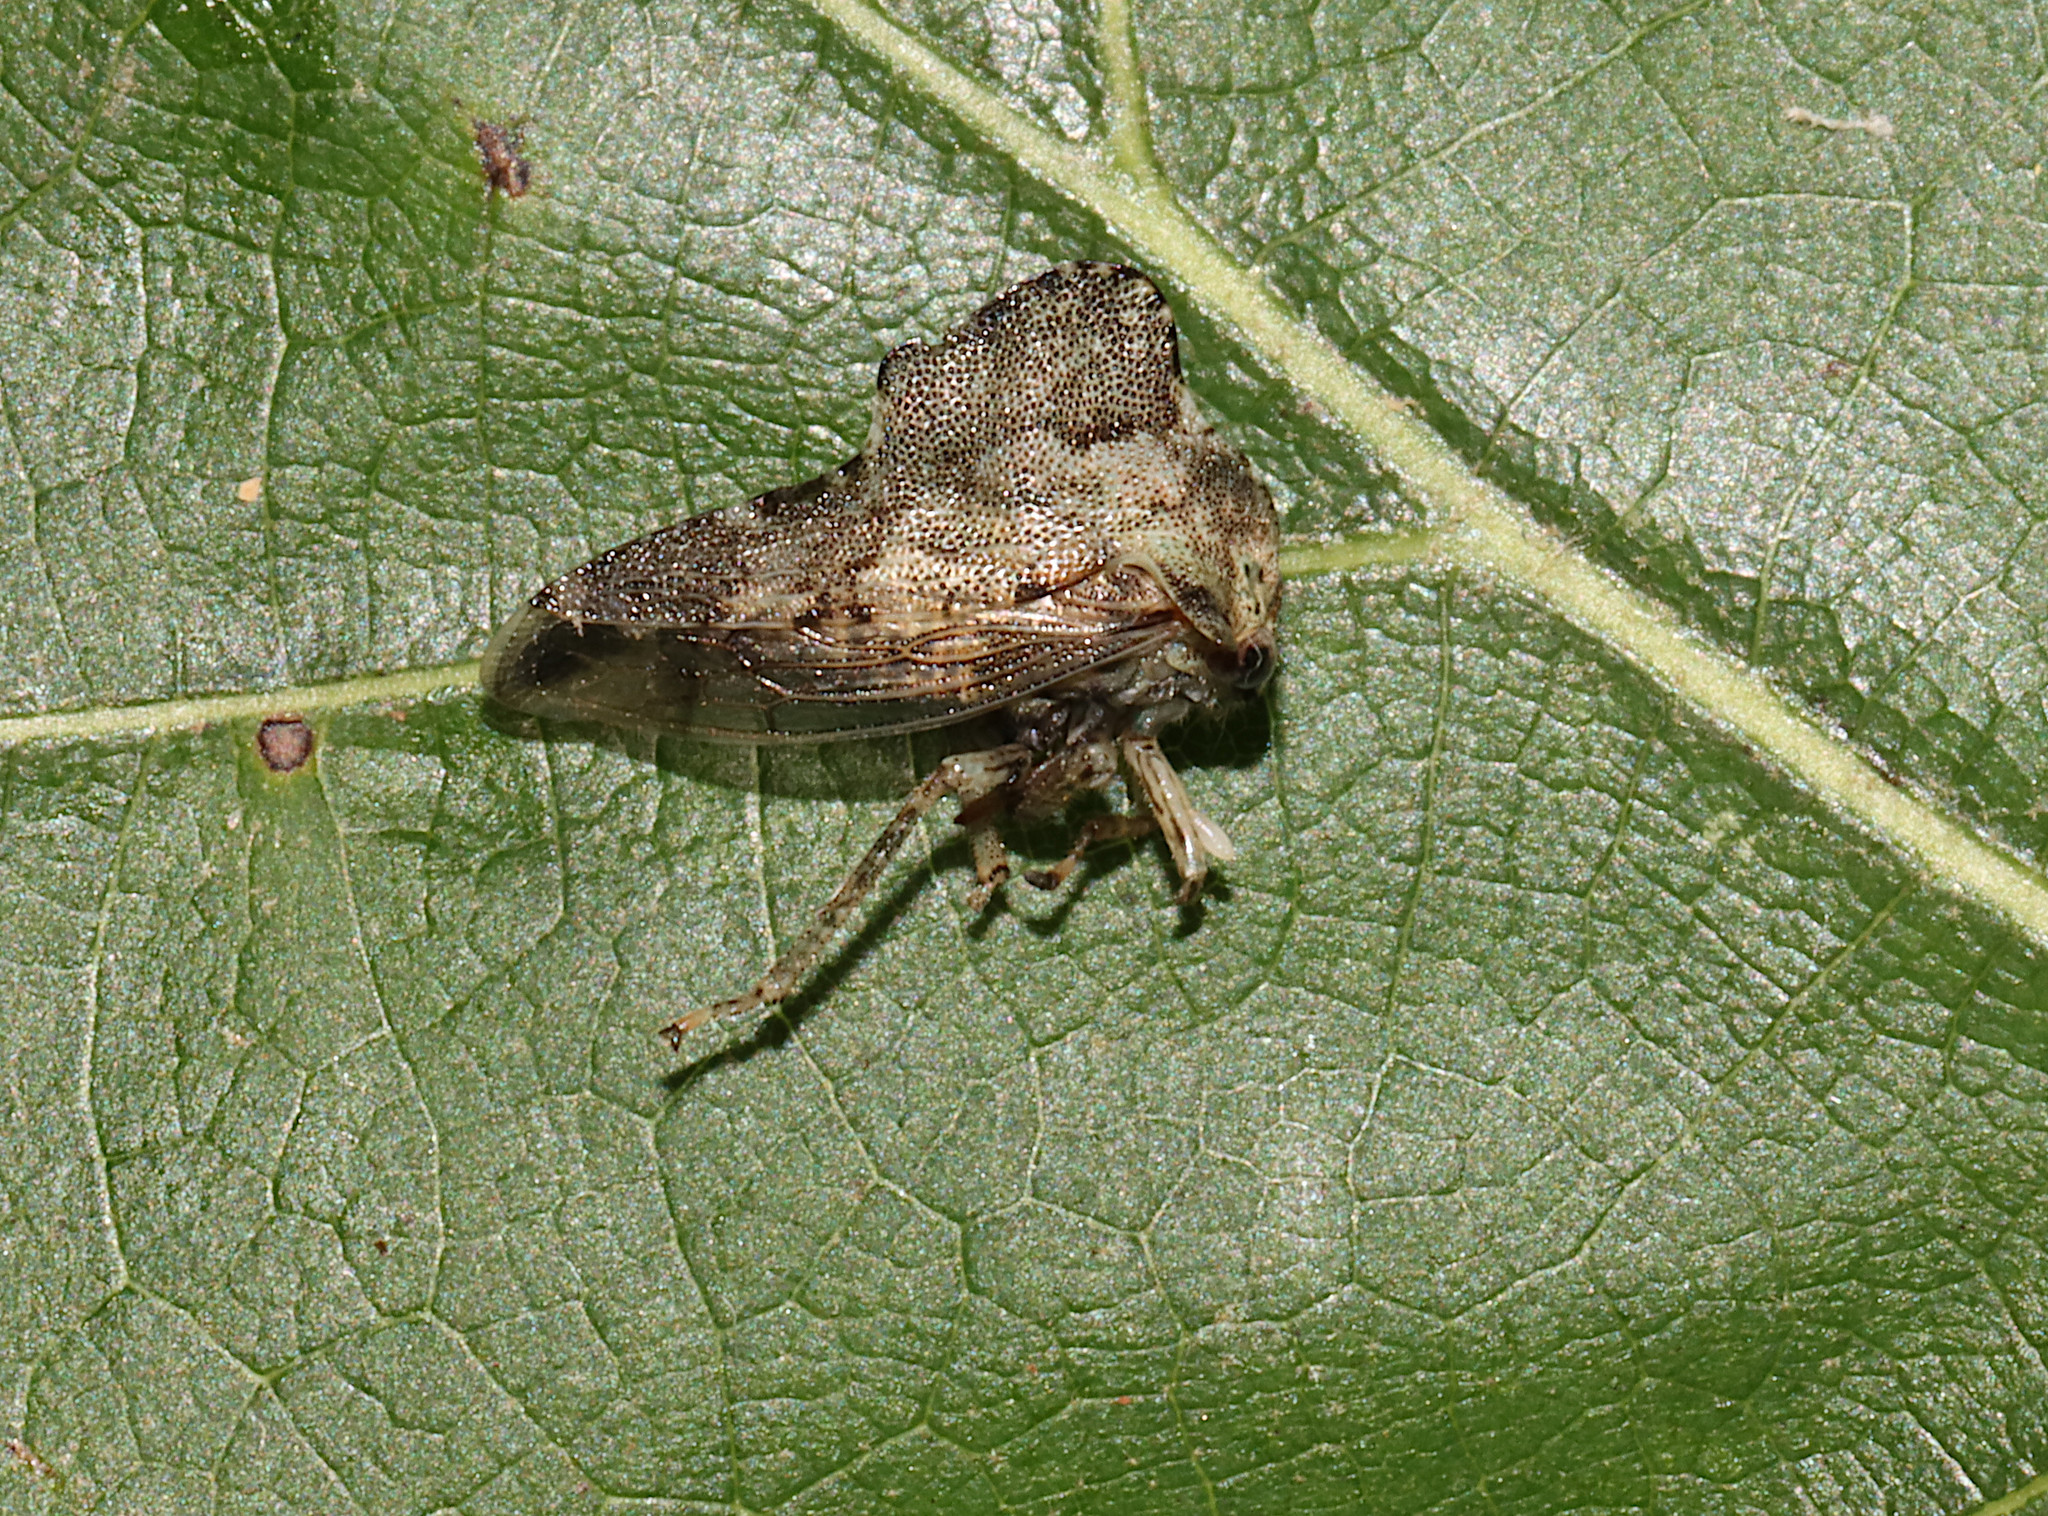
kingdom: Animalia
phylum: Arthropoda
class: Insecta
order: Hemiptera
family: Membracidae
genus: Heliria
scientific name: Heliria cornutula
